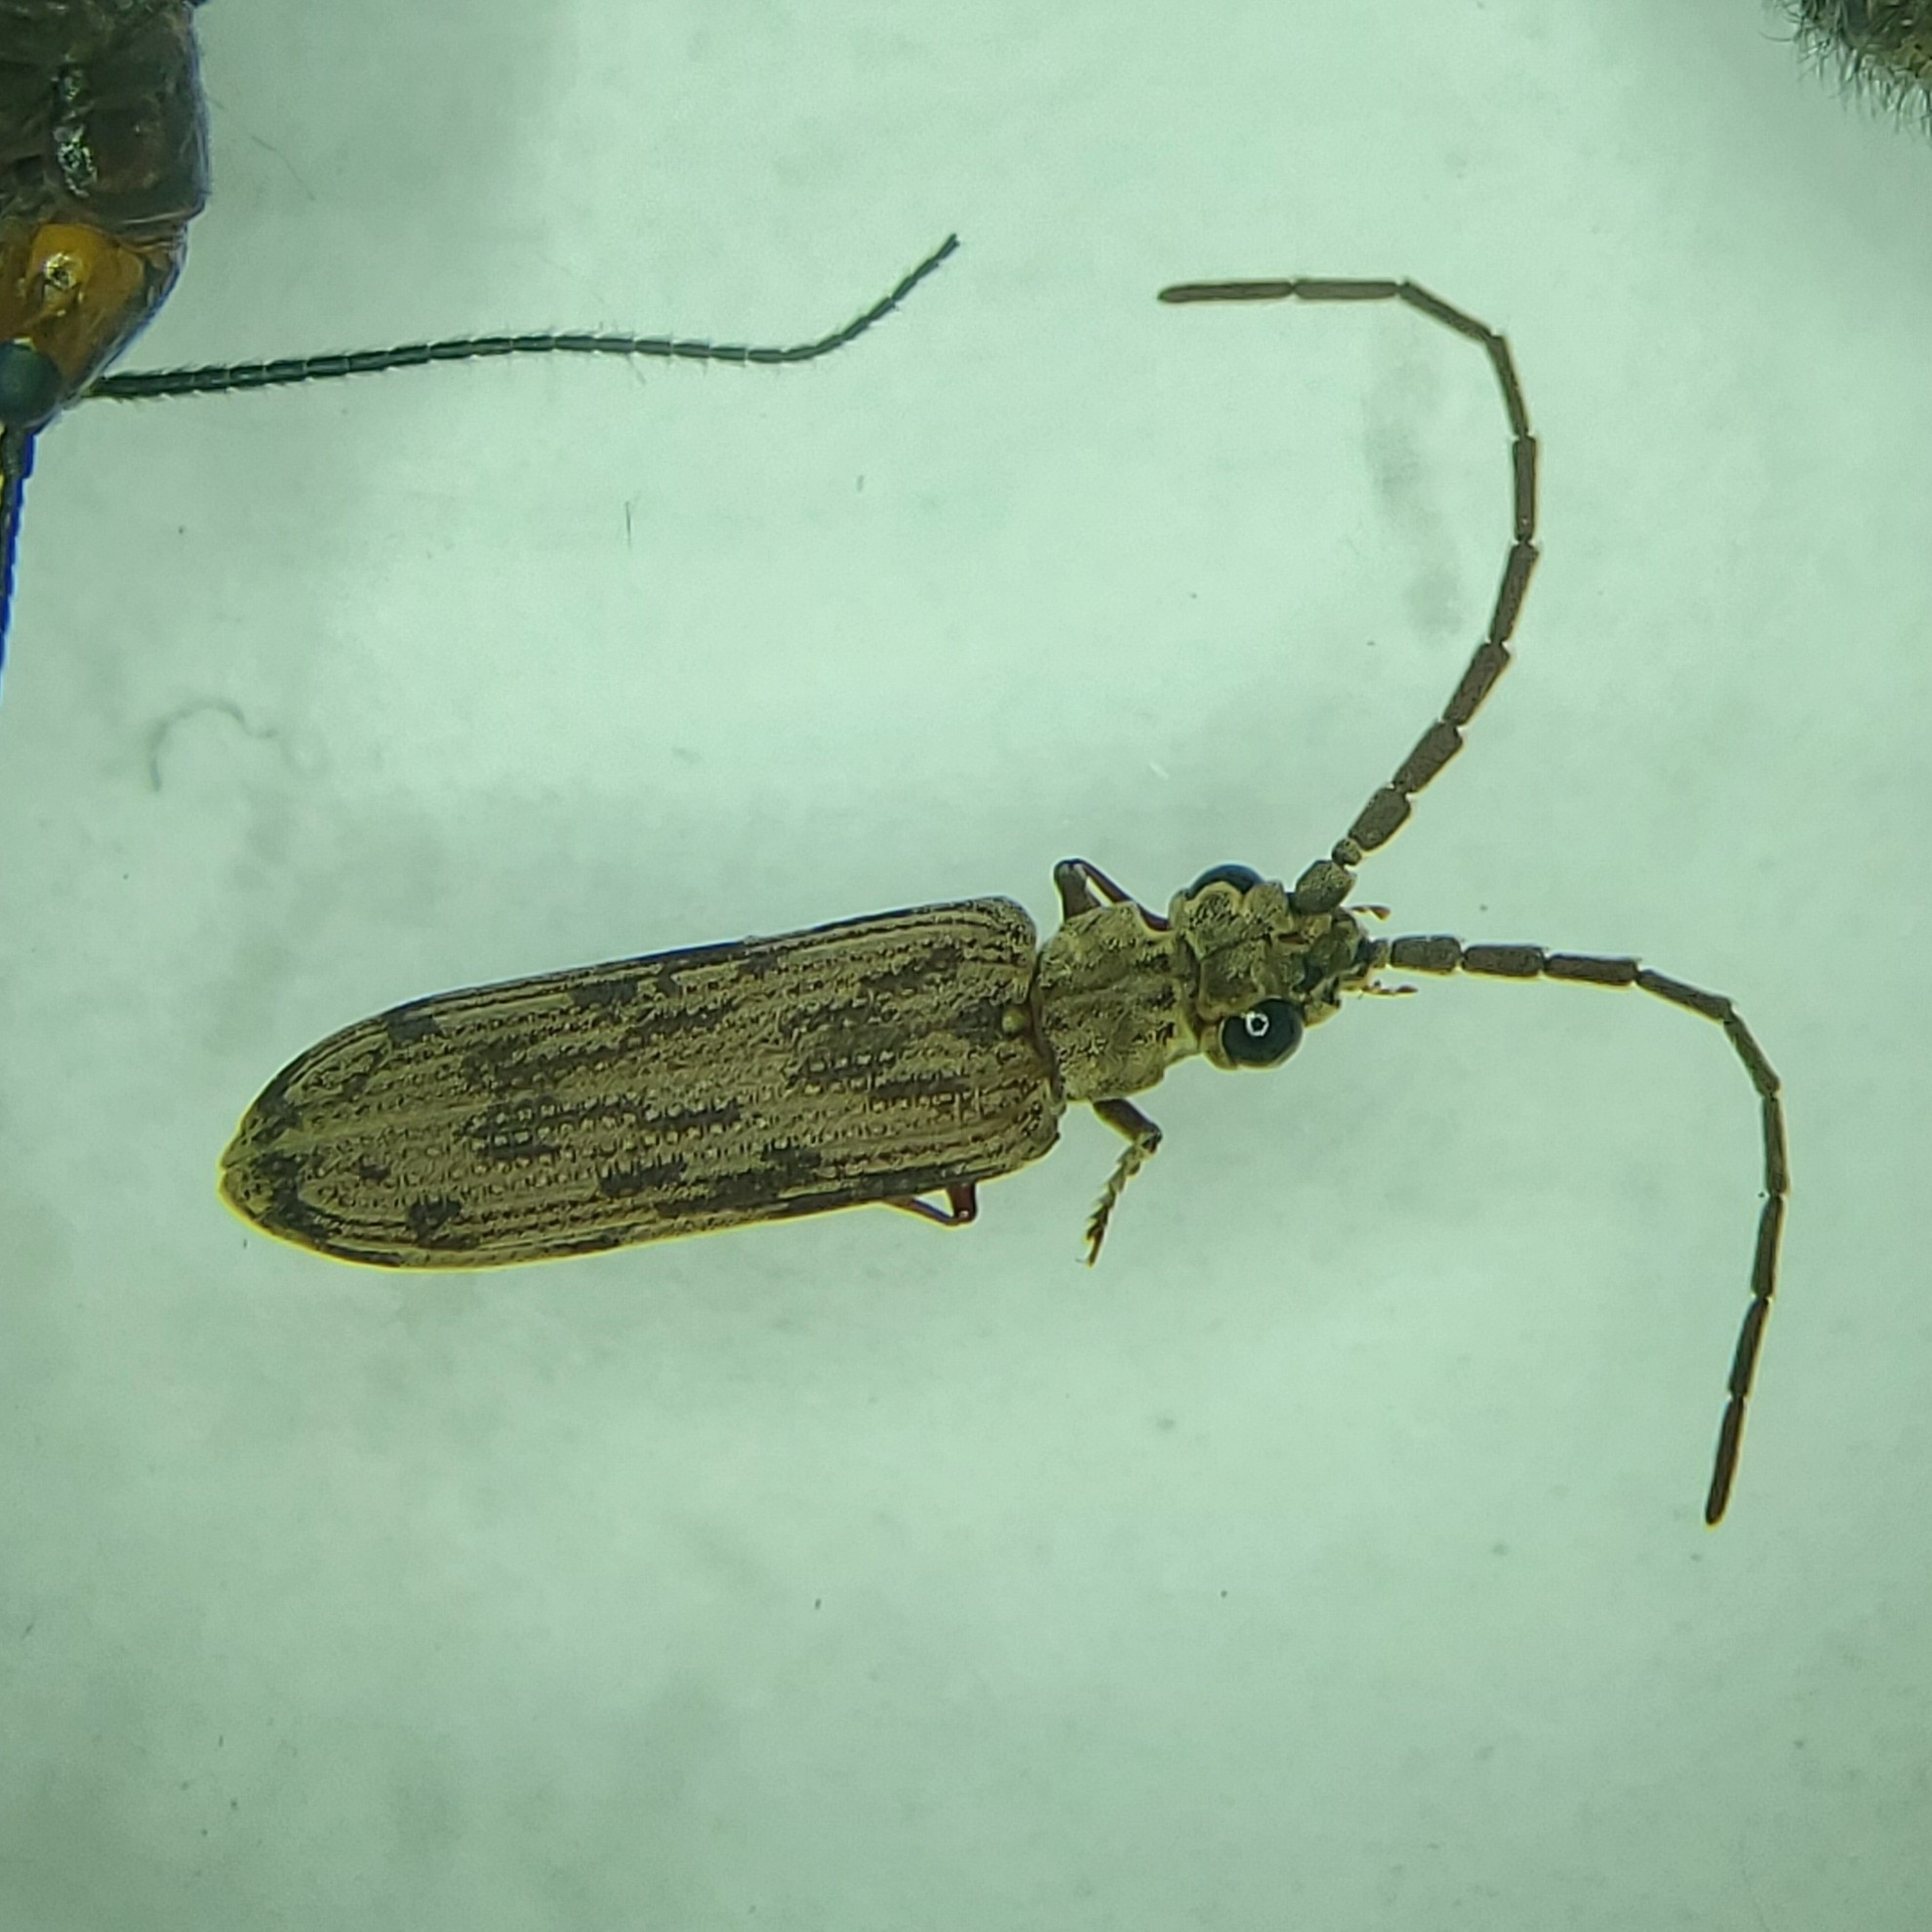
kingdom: Animalia
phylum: Arthropoda
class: Insecta
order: Coleoptera
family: Cupedidae
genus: Tenomerga
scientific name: Tenomerga cinerea
